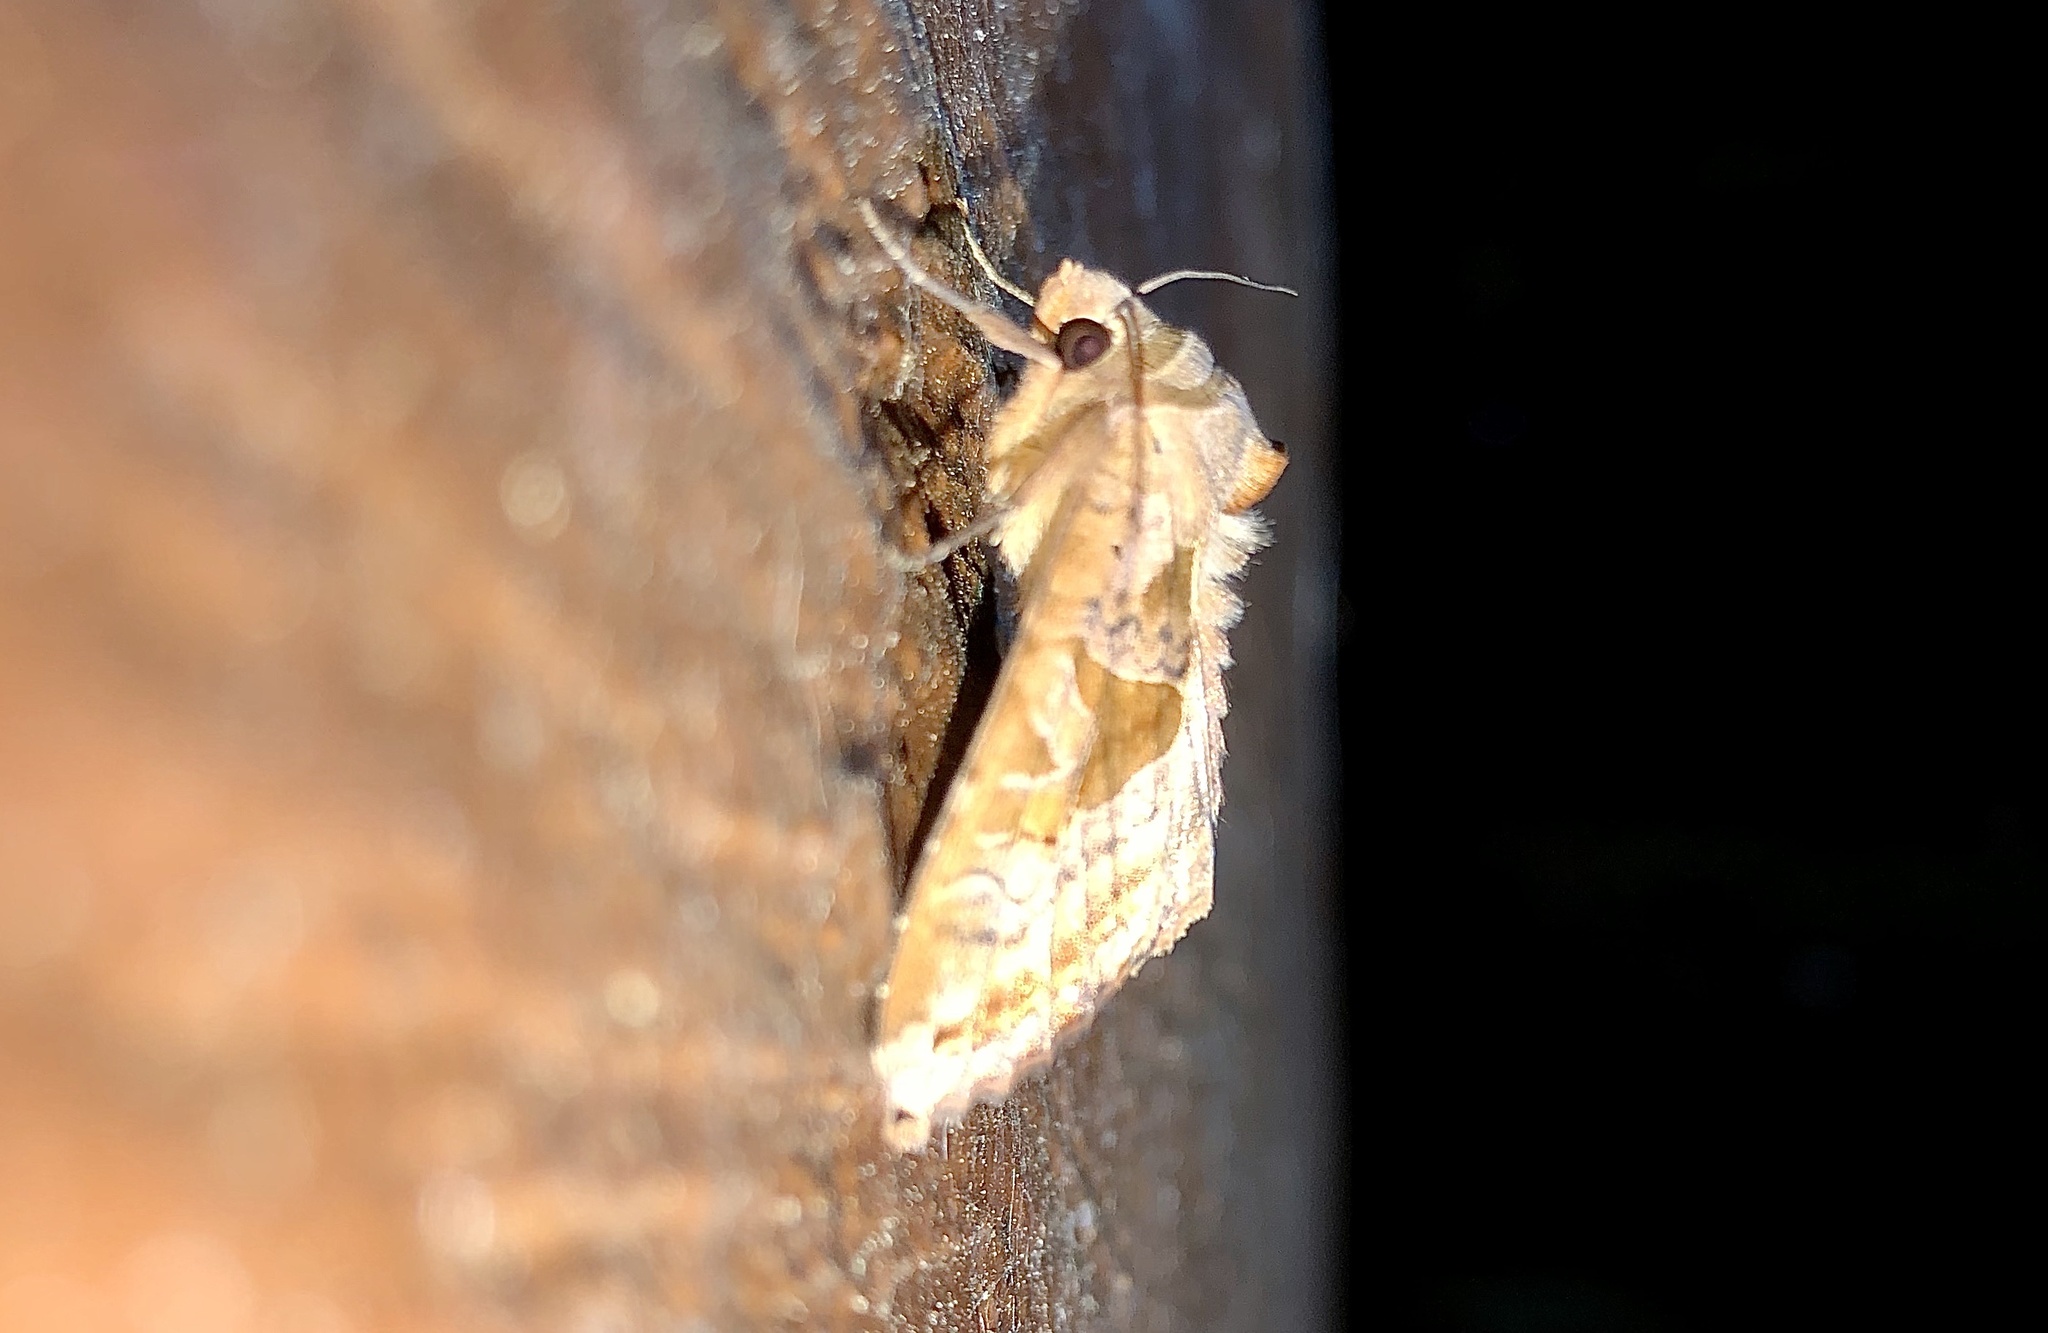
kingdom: Animalia
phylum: Arthropoda
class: Insecta
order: Lepidoptera
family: Noctuidae
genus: Phlogophora
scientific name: Phlogophora periculosa
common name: Brown angle shades
